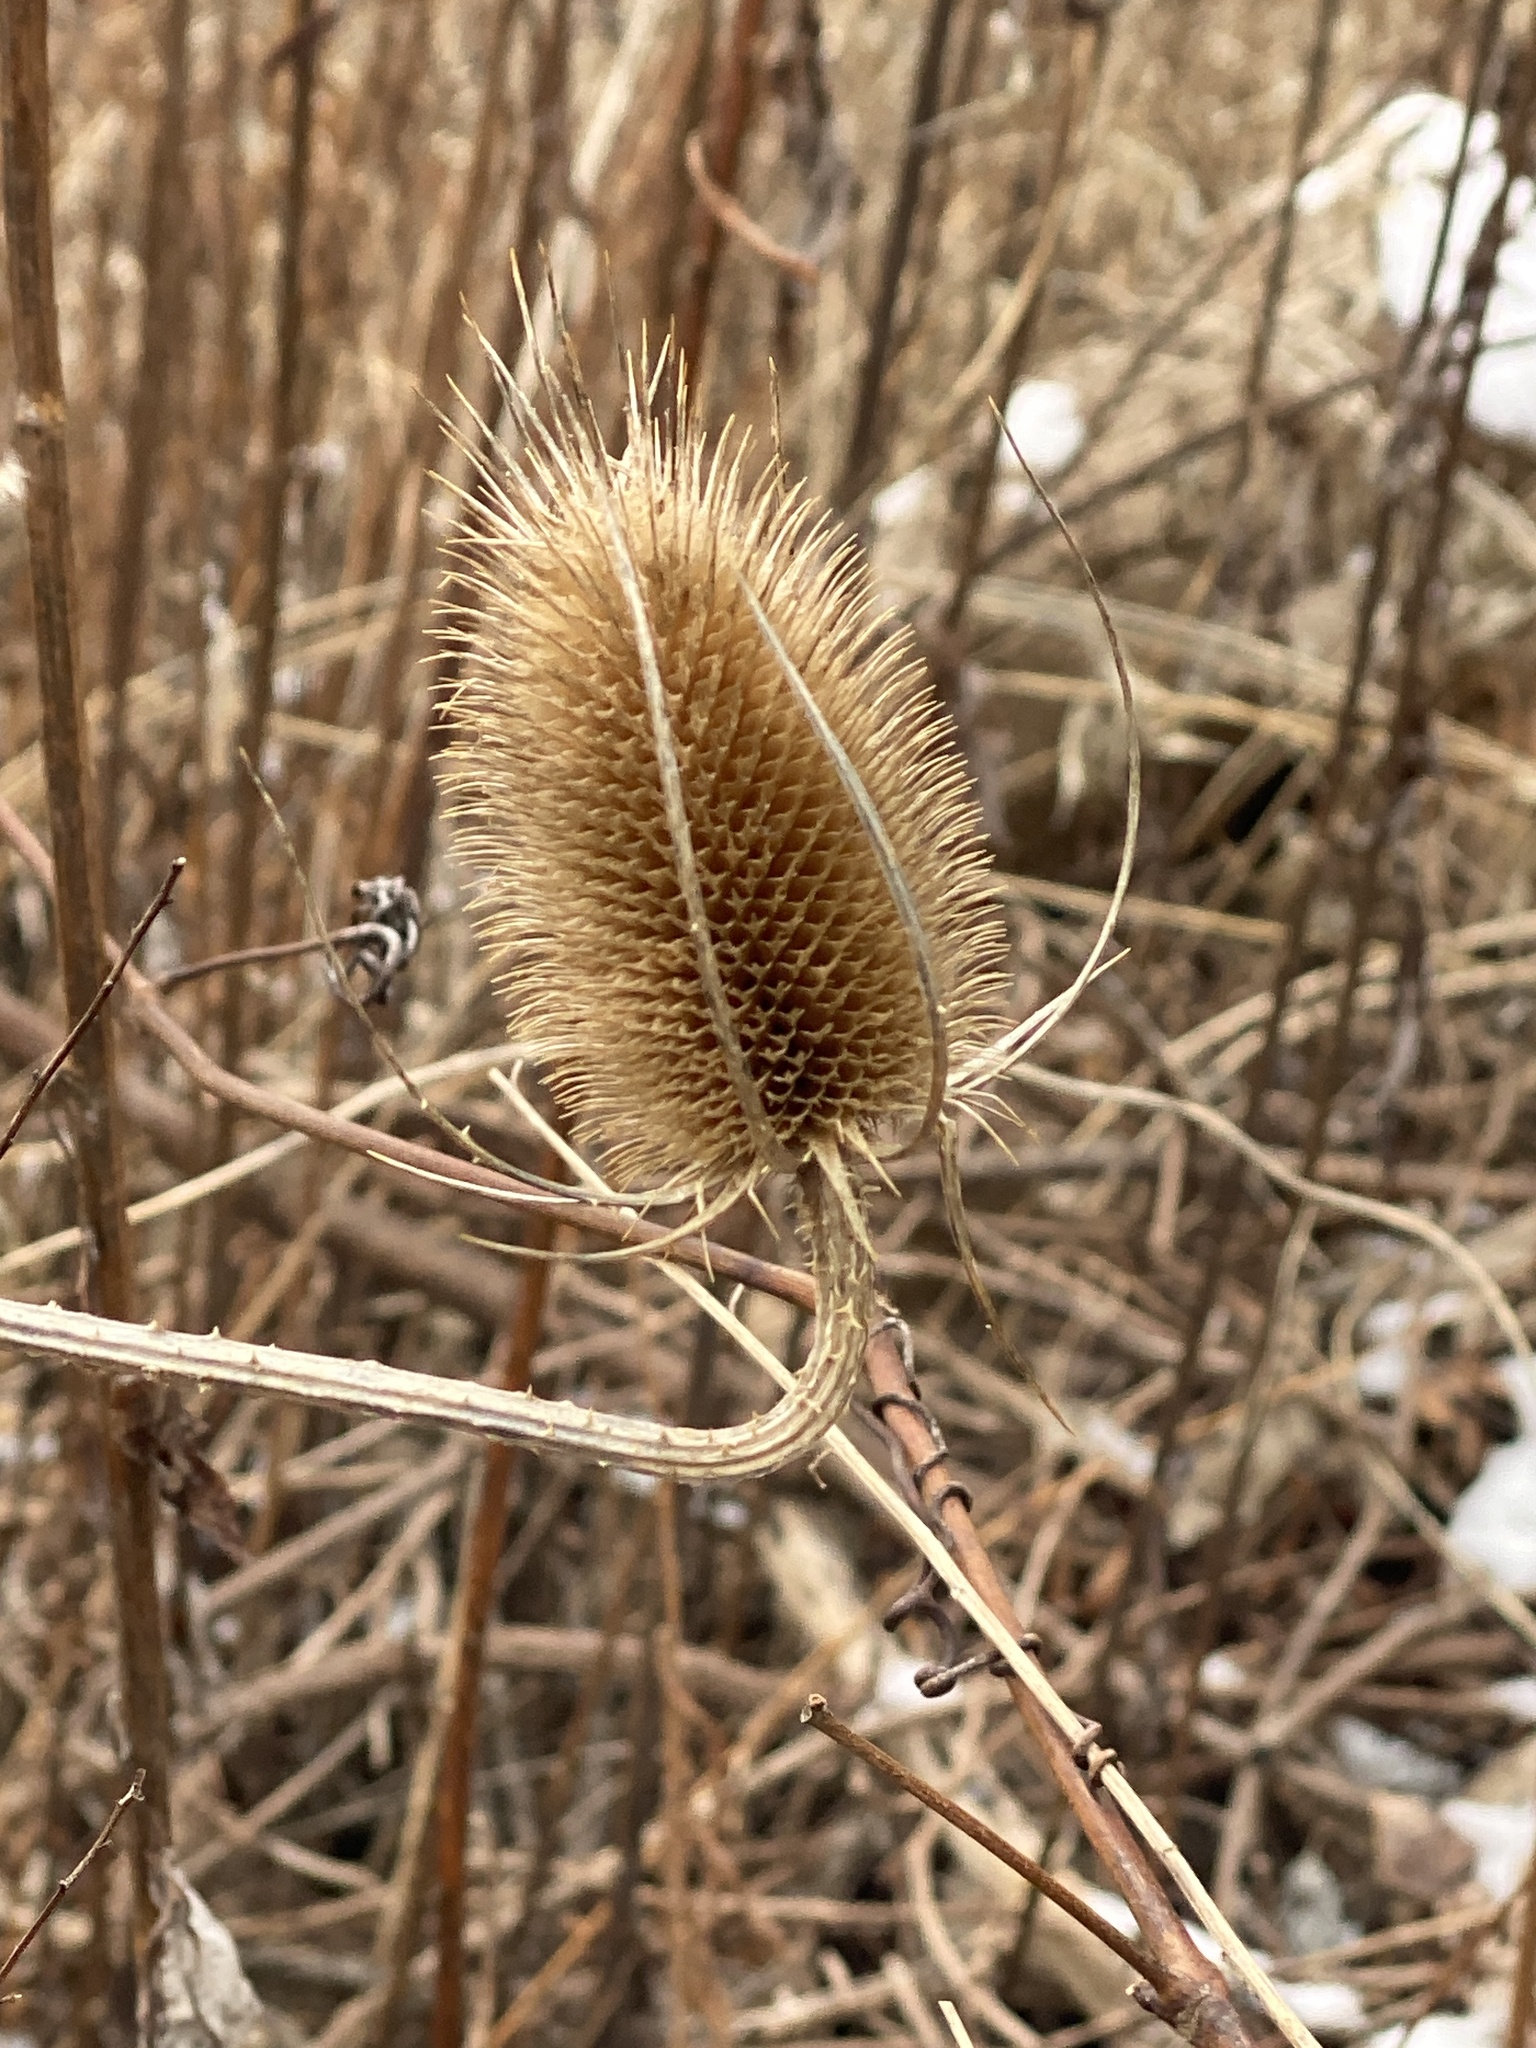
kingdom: Plantae
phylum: Tracheophyta
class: Magnoliopsida
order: Dipsacales
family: Caprifoliaceae
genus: Dipsacus
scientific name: Dipsacus fullonum
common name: Teasel
